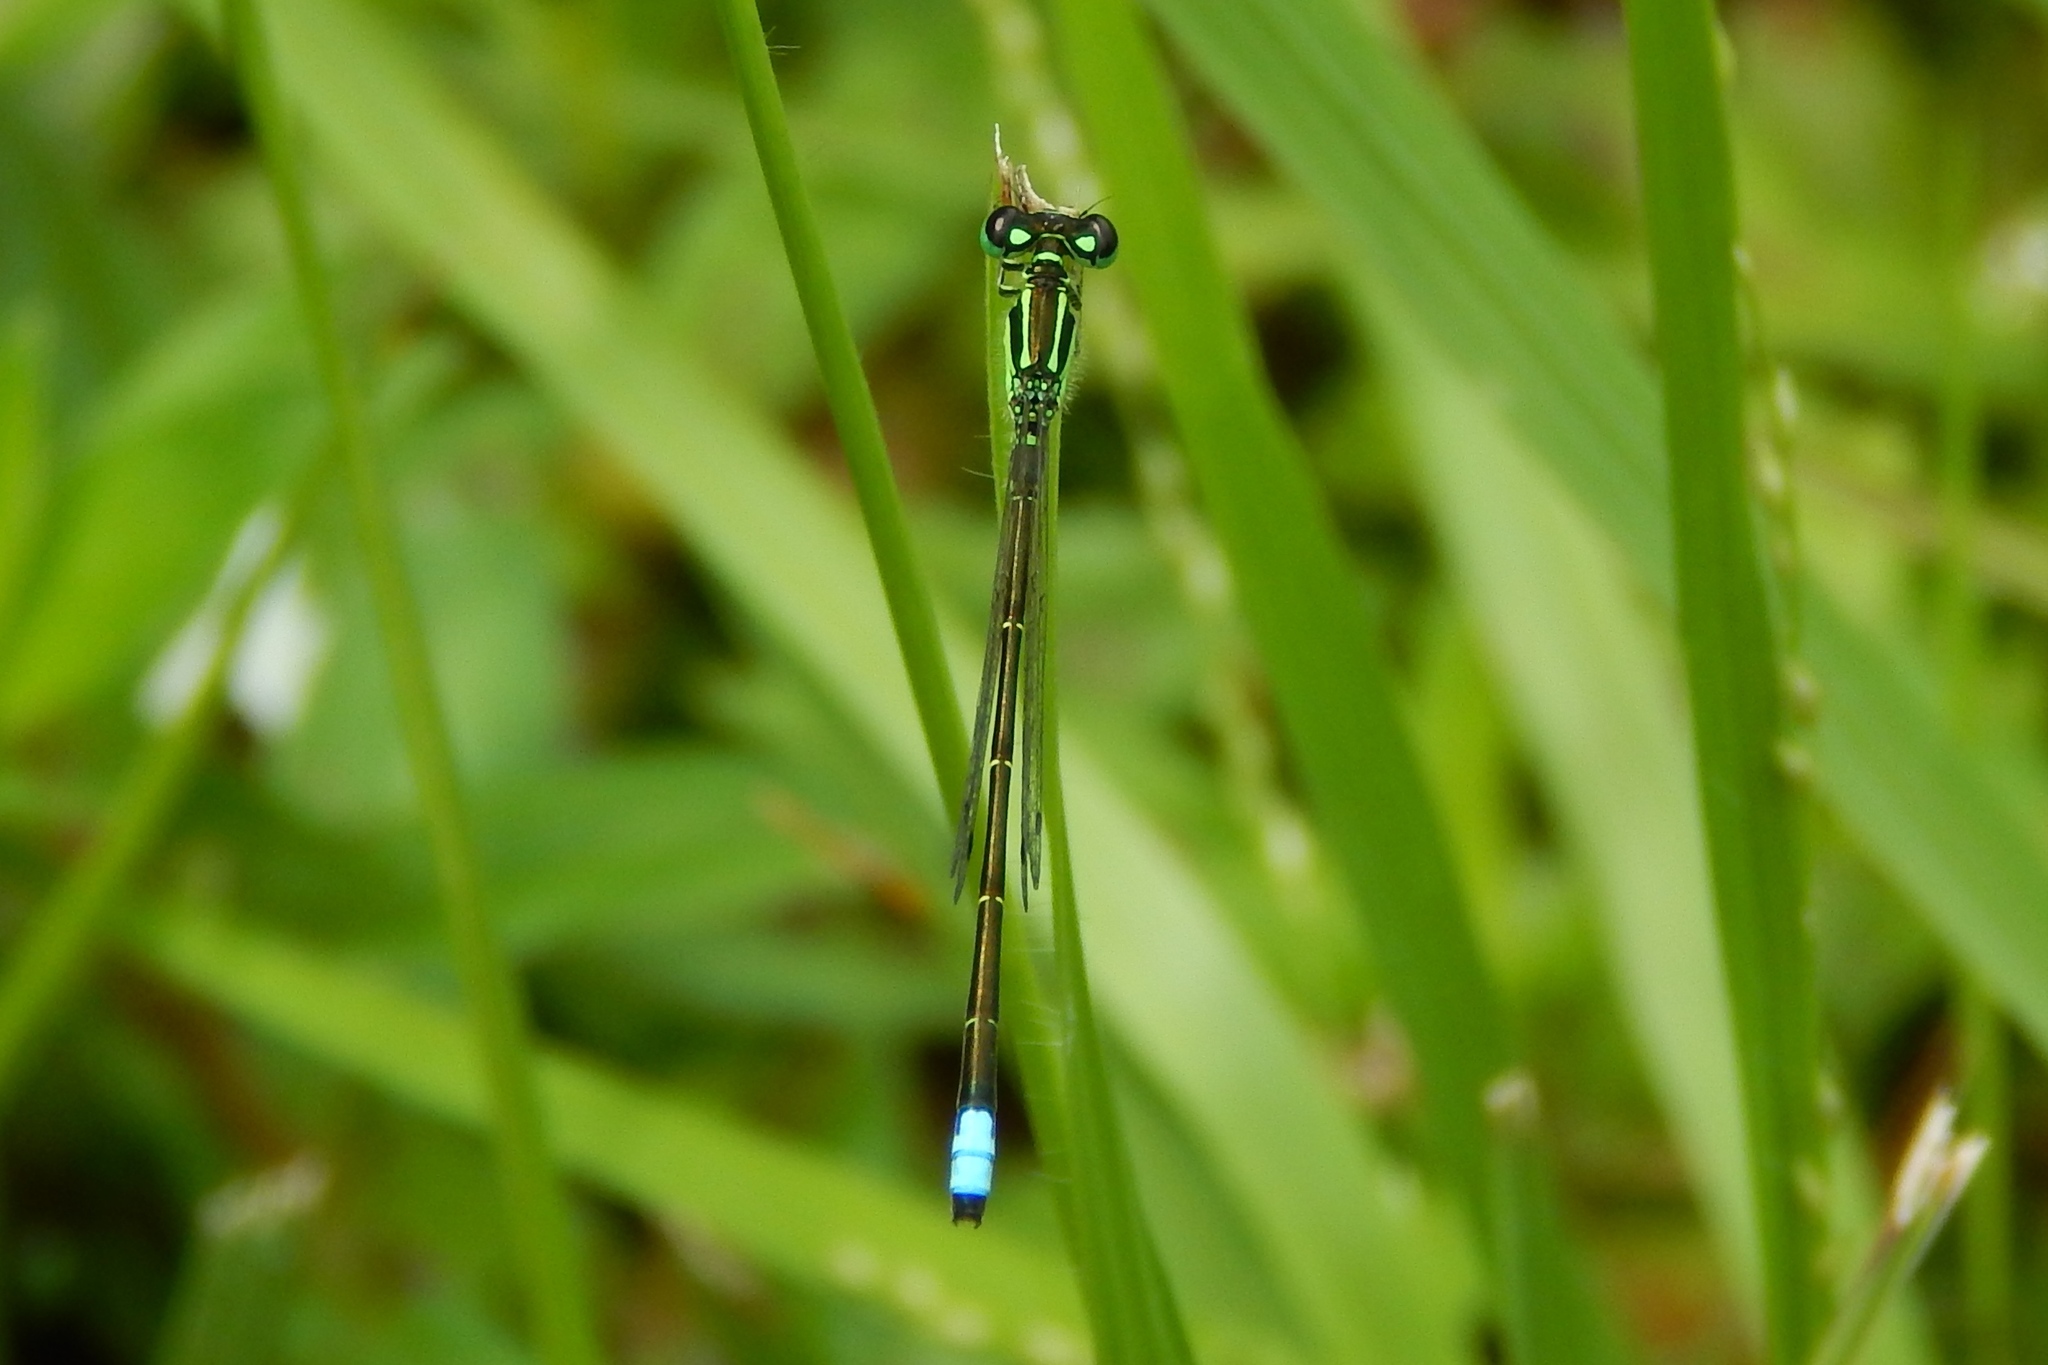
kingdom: Animalia
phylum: Arthropoda
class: Insecta
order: Odonata
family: Coenagrionidae
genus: Ischnura
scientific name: Ischnura verticalis
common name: Eastern forktail
